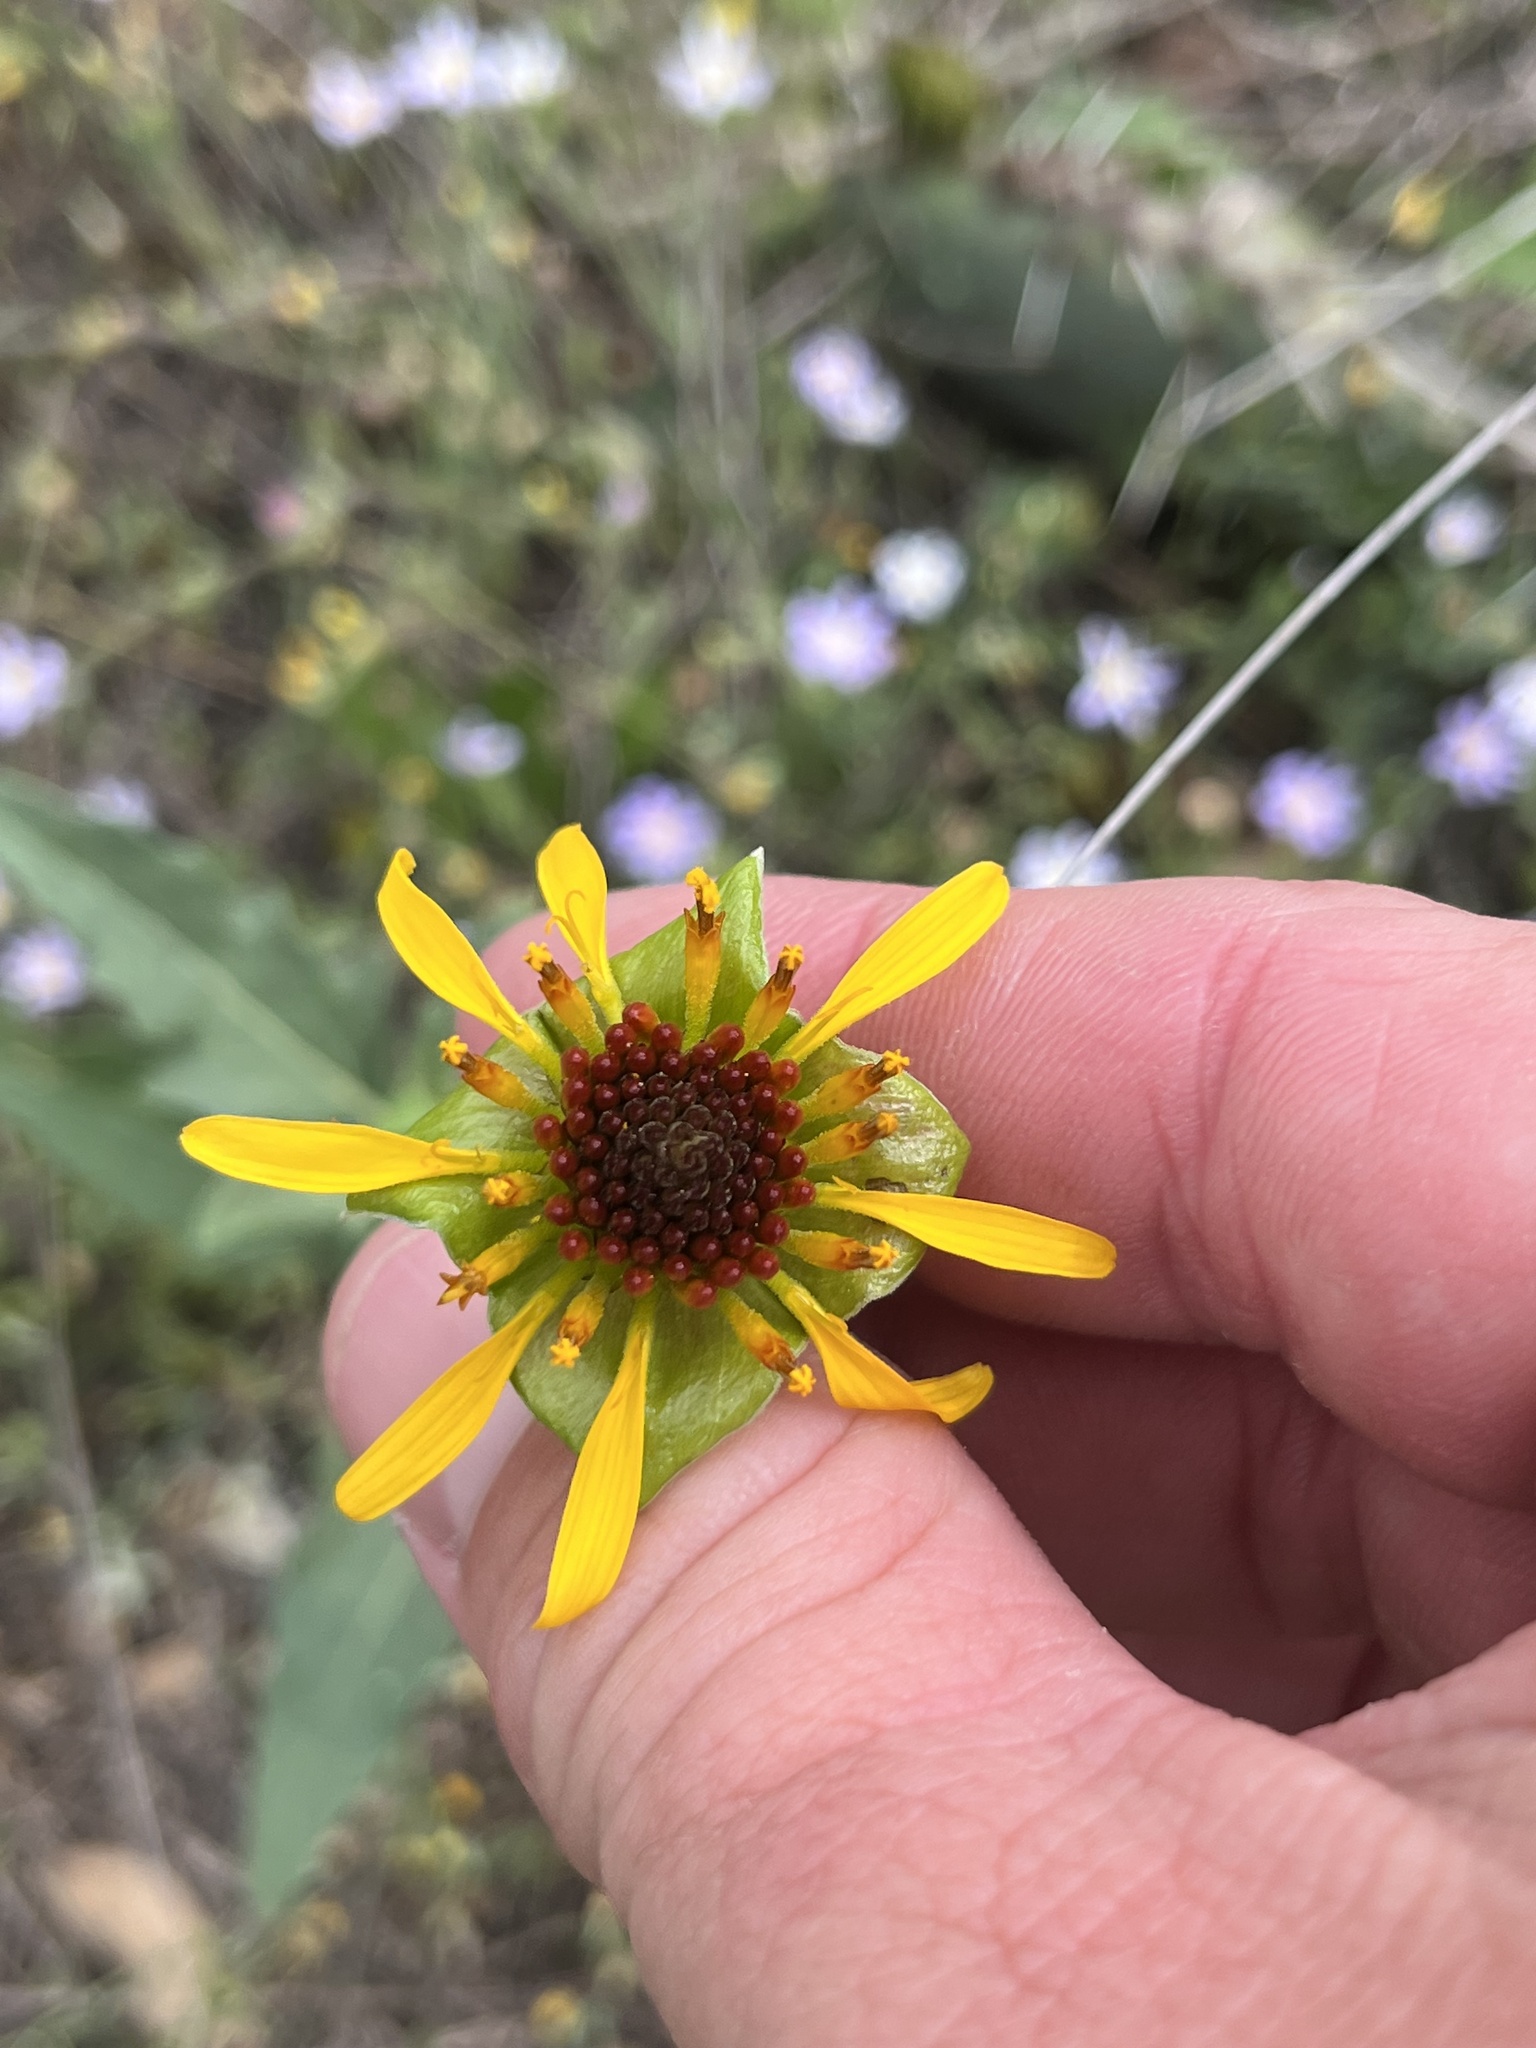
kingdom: Plantae
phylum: Tracheophyta
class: Magnoliopsida
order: Asterales
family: Asteraceae
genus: Tetragonotheca
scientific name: Tetragonotheca texana
